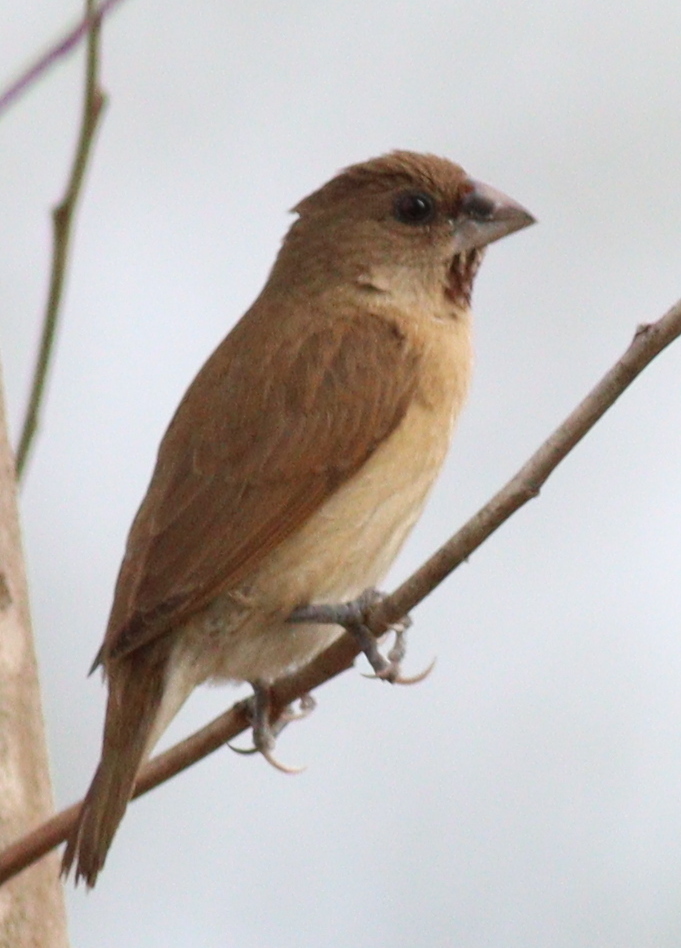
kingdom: Animalia
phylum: Chordata
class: Aves
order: Passeriformes
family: Estrildidae
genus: Lonchura
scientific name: Lonchura punctulata
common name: Scaly-breasted munia
